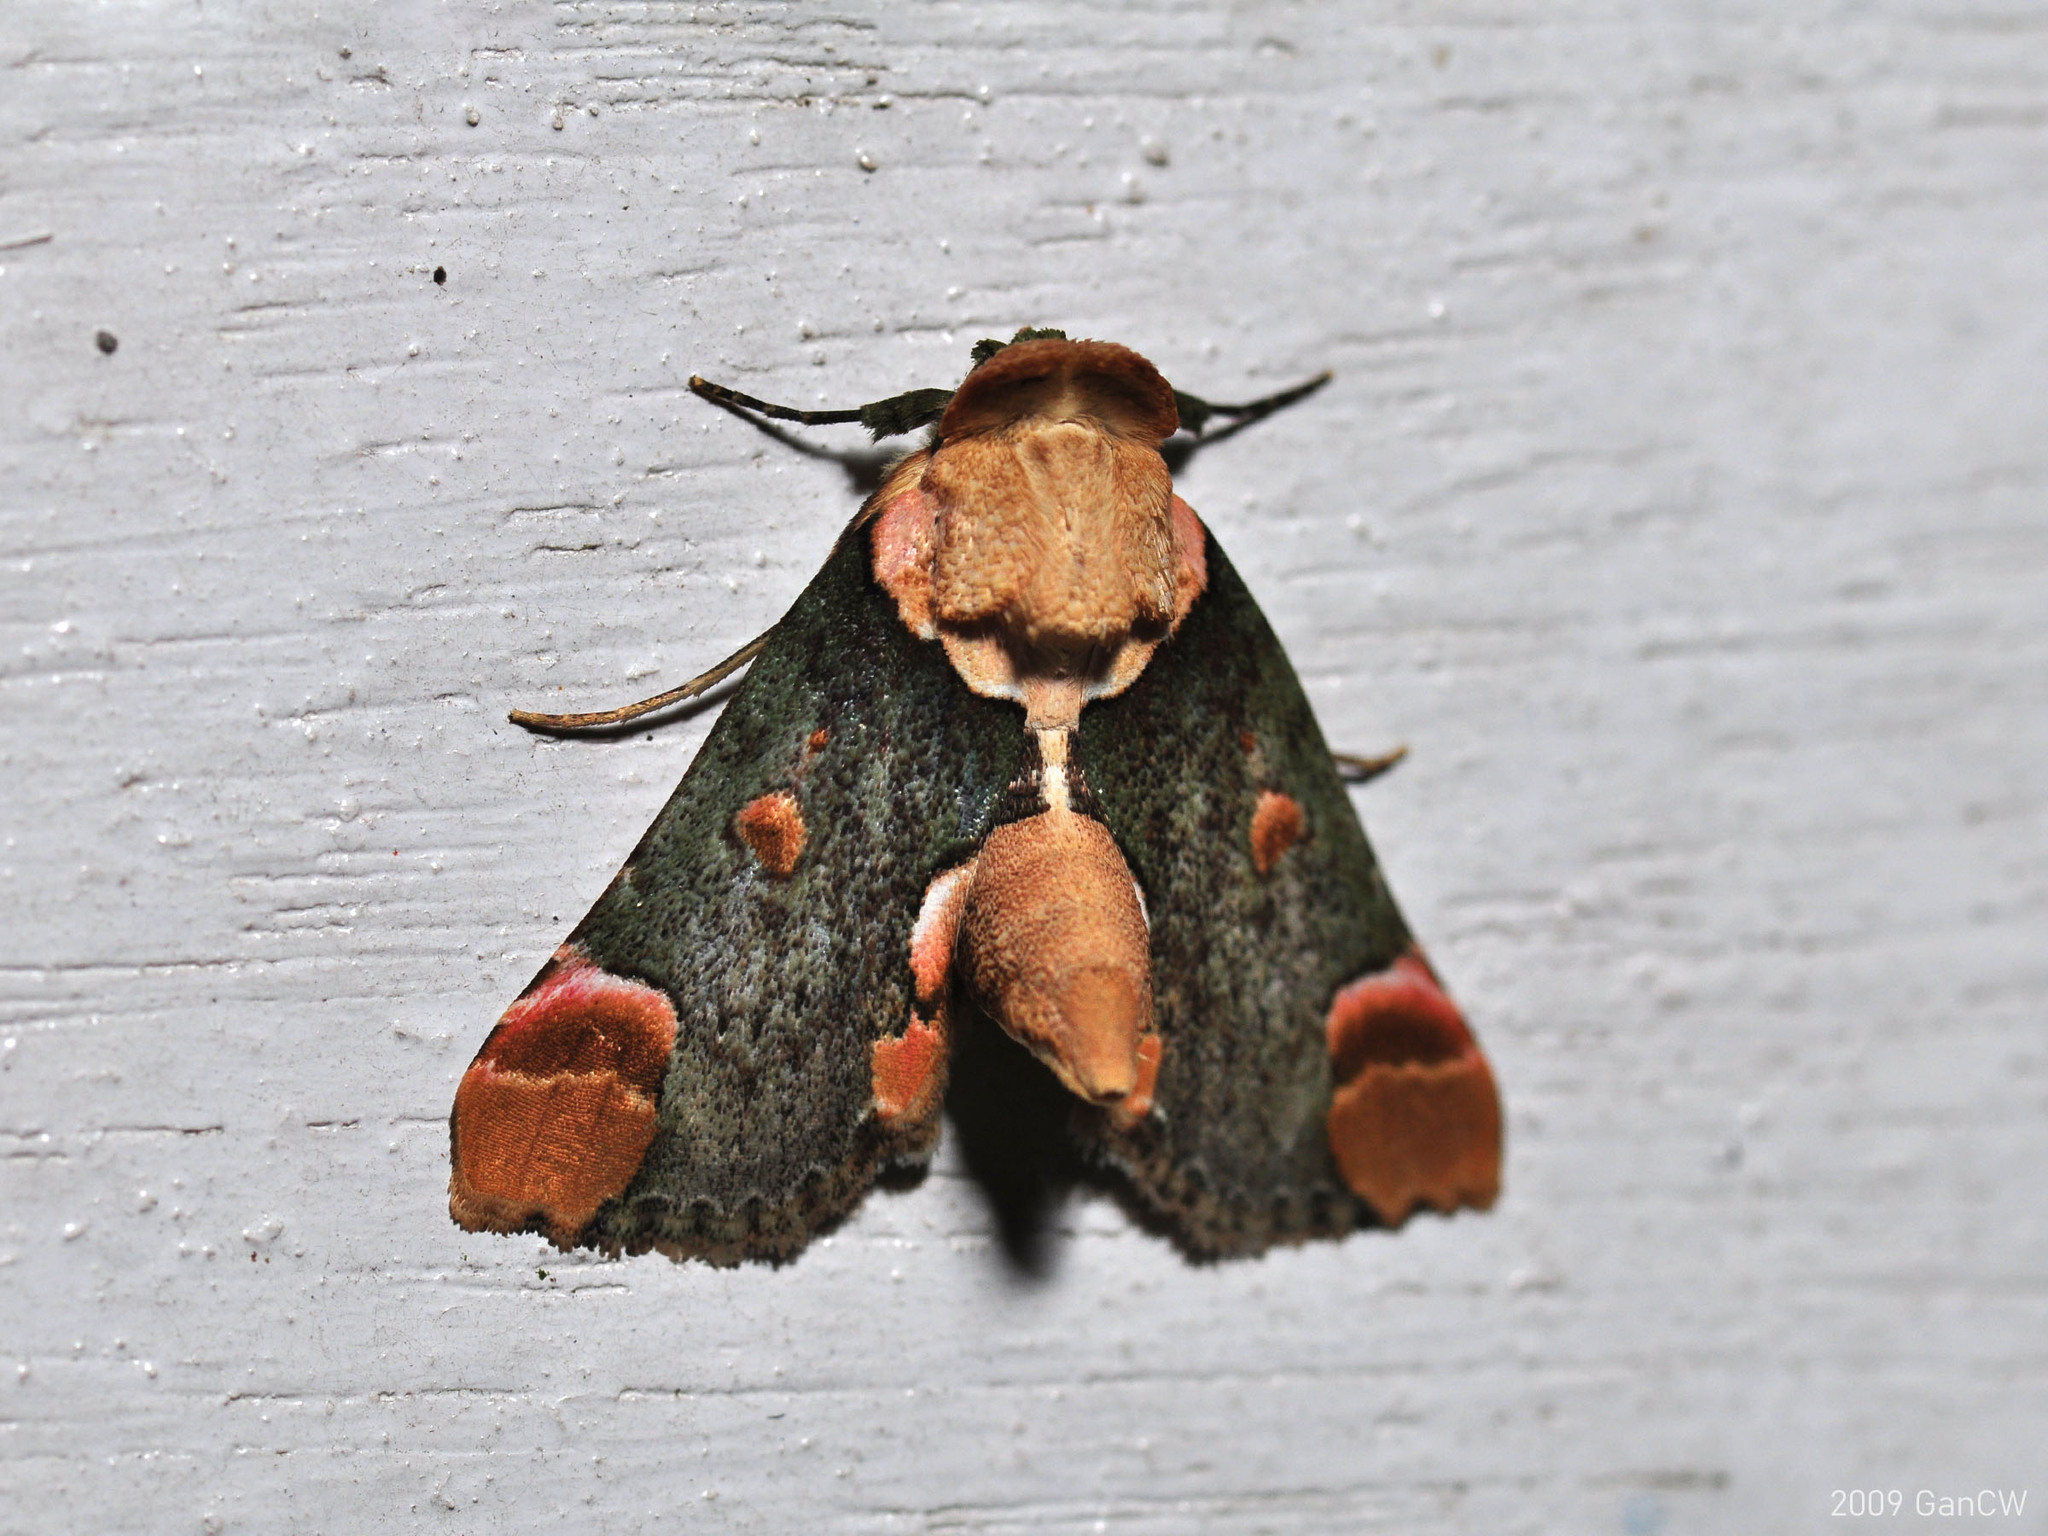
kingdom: Animalia
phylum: Arthropoda
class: Insecta
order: Lepidoptera
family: Nolidae
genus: Risoba
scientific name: Risoba repugnans
